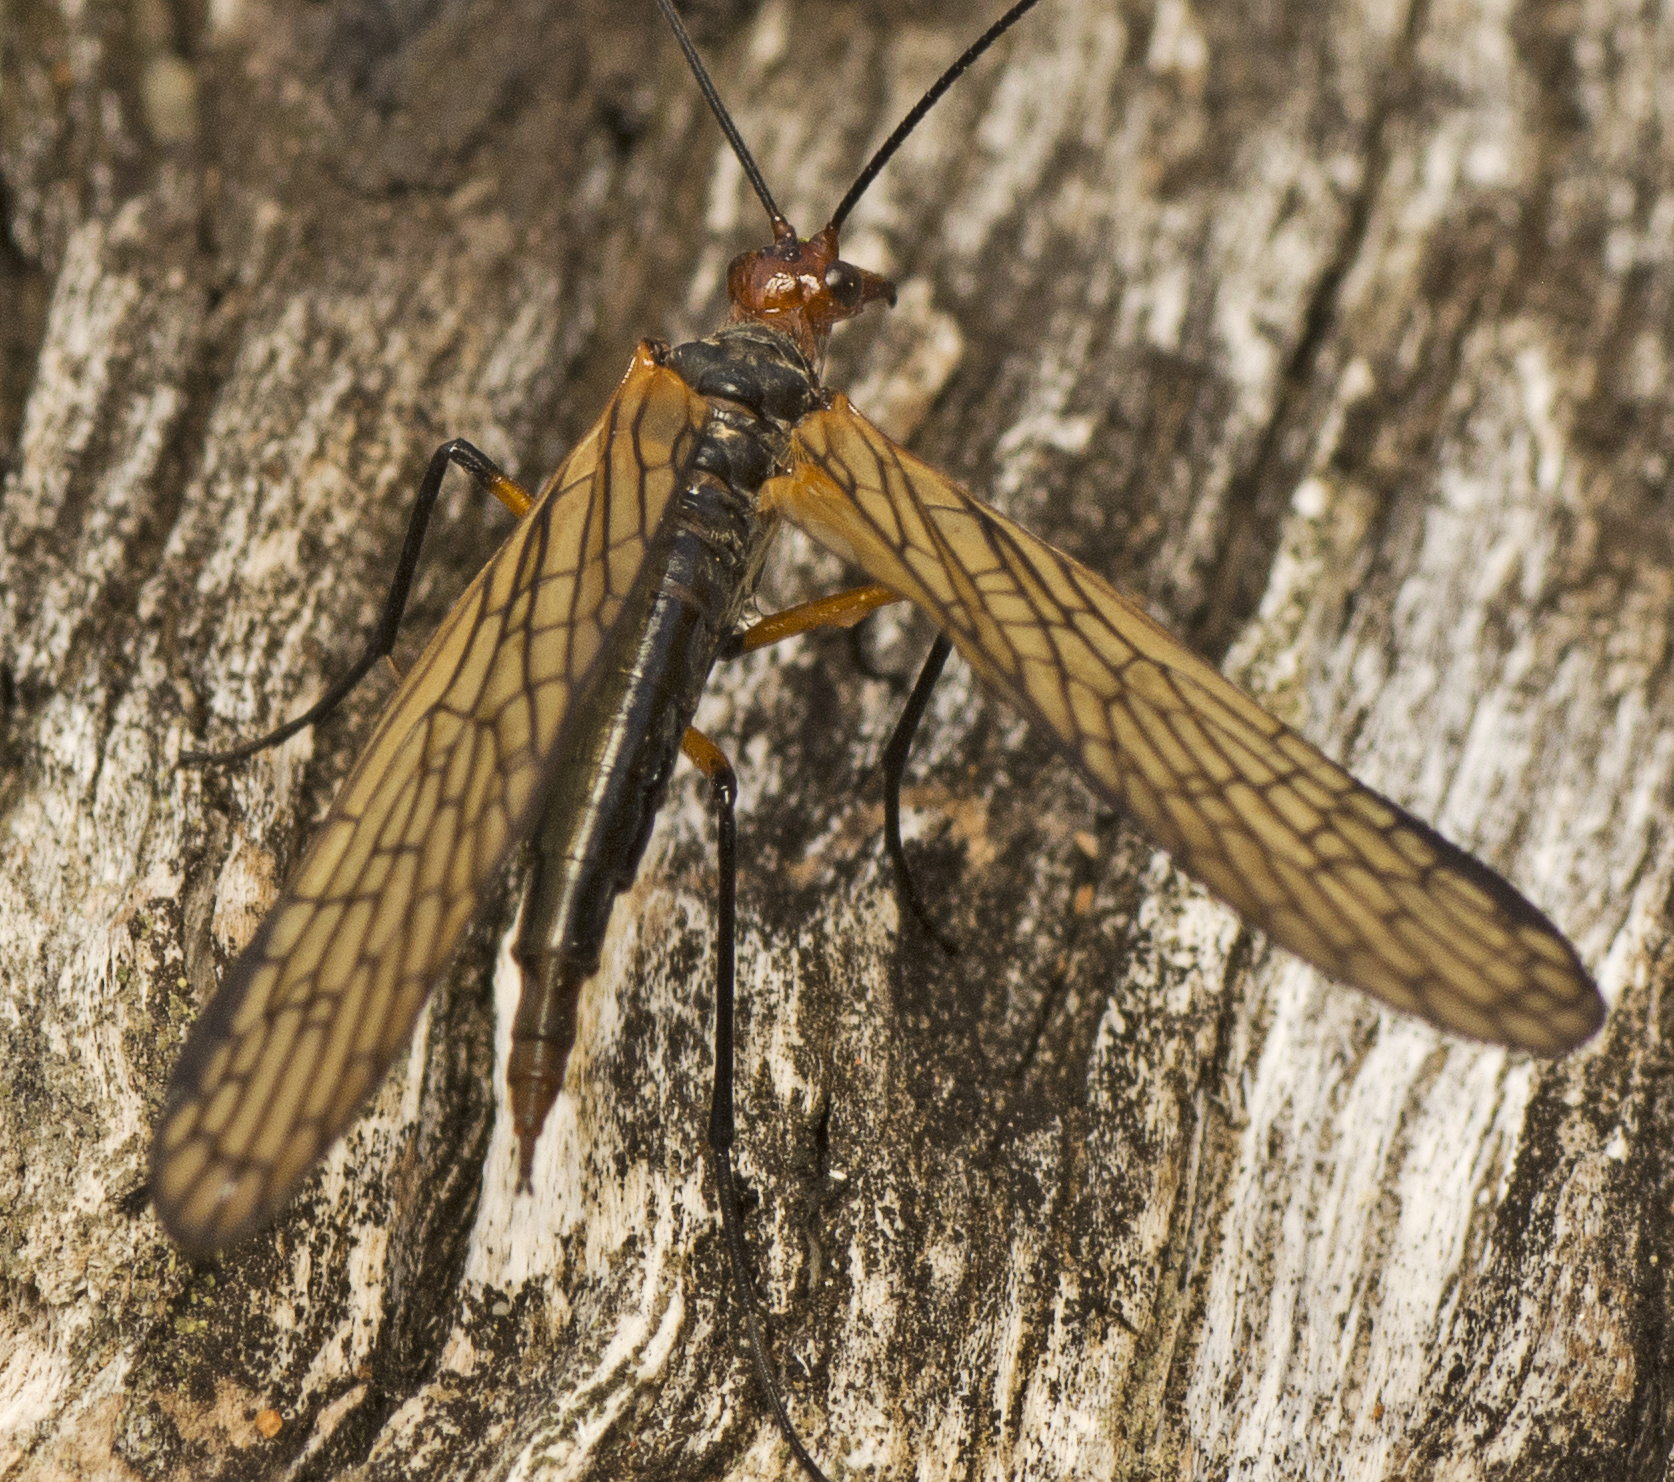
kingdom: Animalia
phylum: Arthropoda
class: Insecta
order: Mecoptera
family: Choristidae
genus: Chorista
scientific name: Chorista australis
